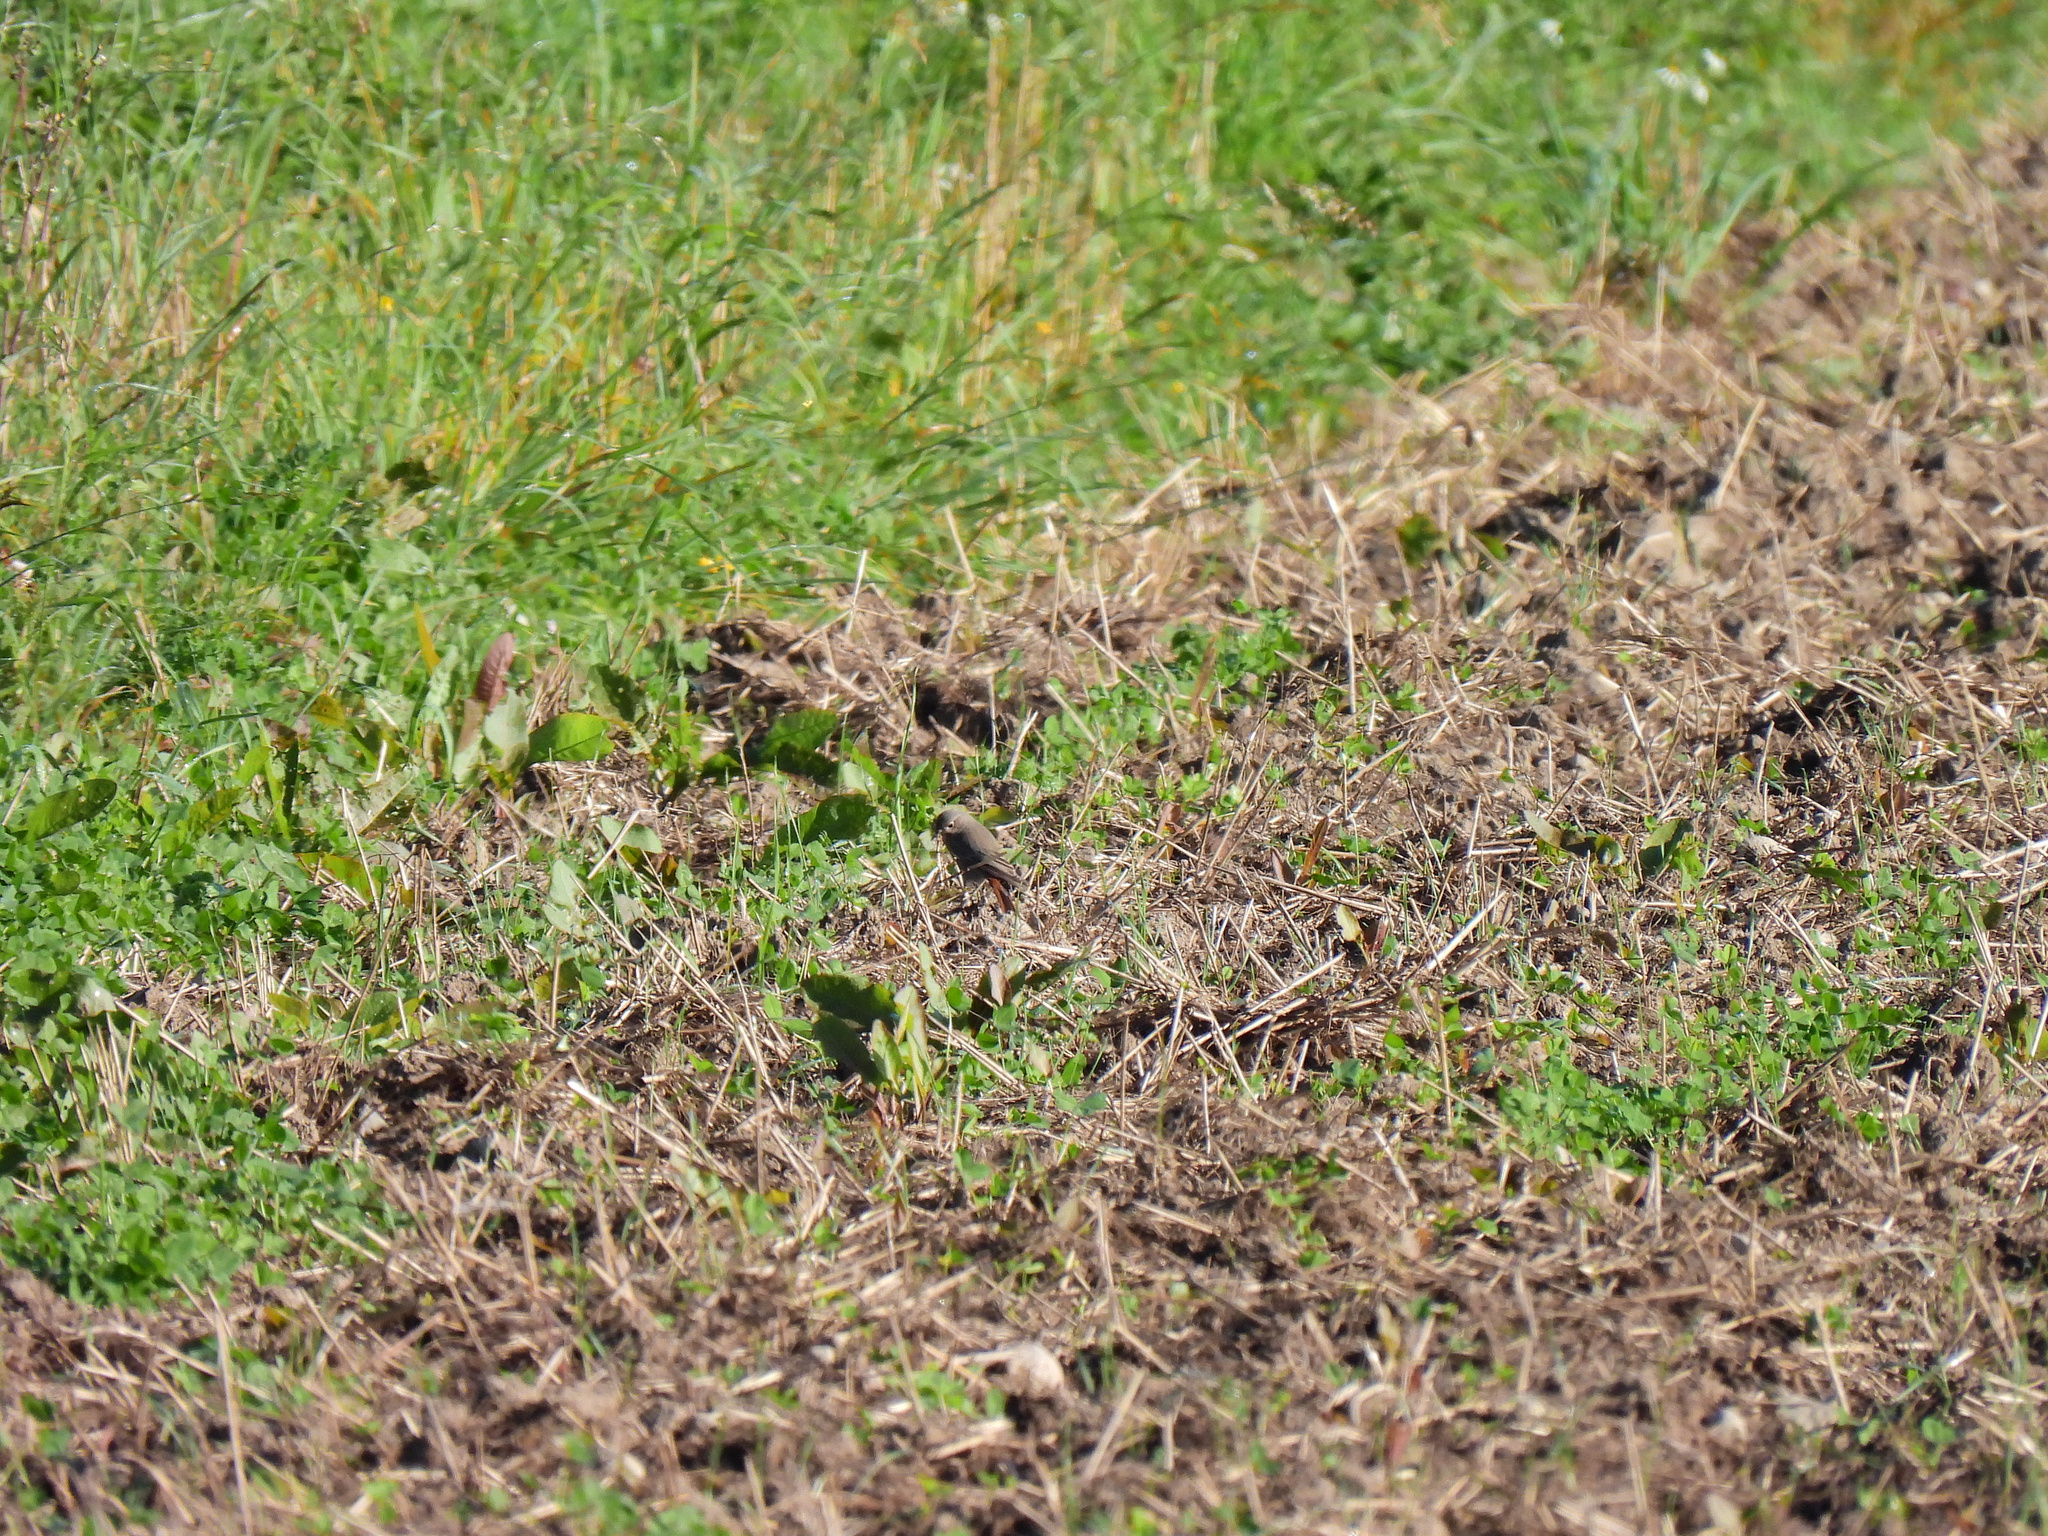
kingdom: Animalia
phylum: Chordata
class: Aves
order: Passeriformes
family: Muscicapidae
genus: Phoenicurus
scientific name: Phoenicurus ochruros
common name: Black redstart
